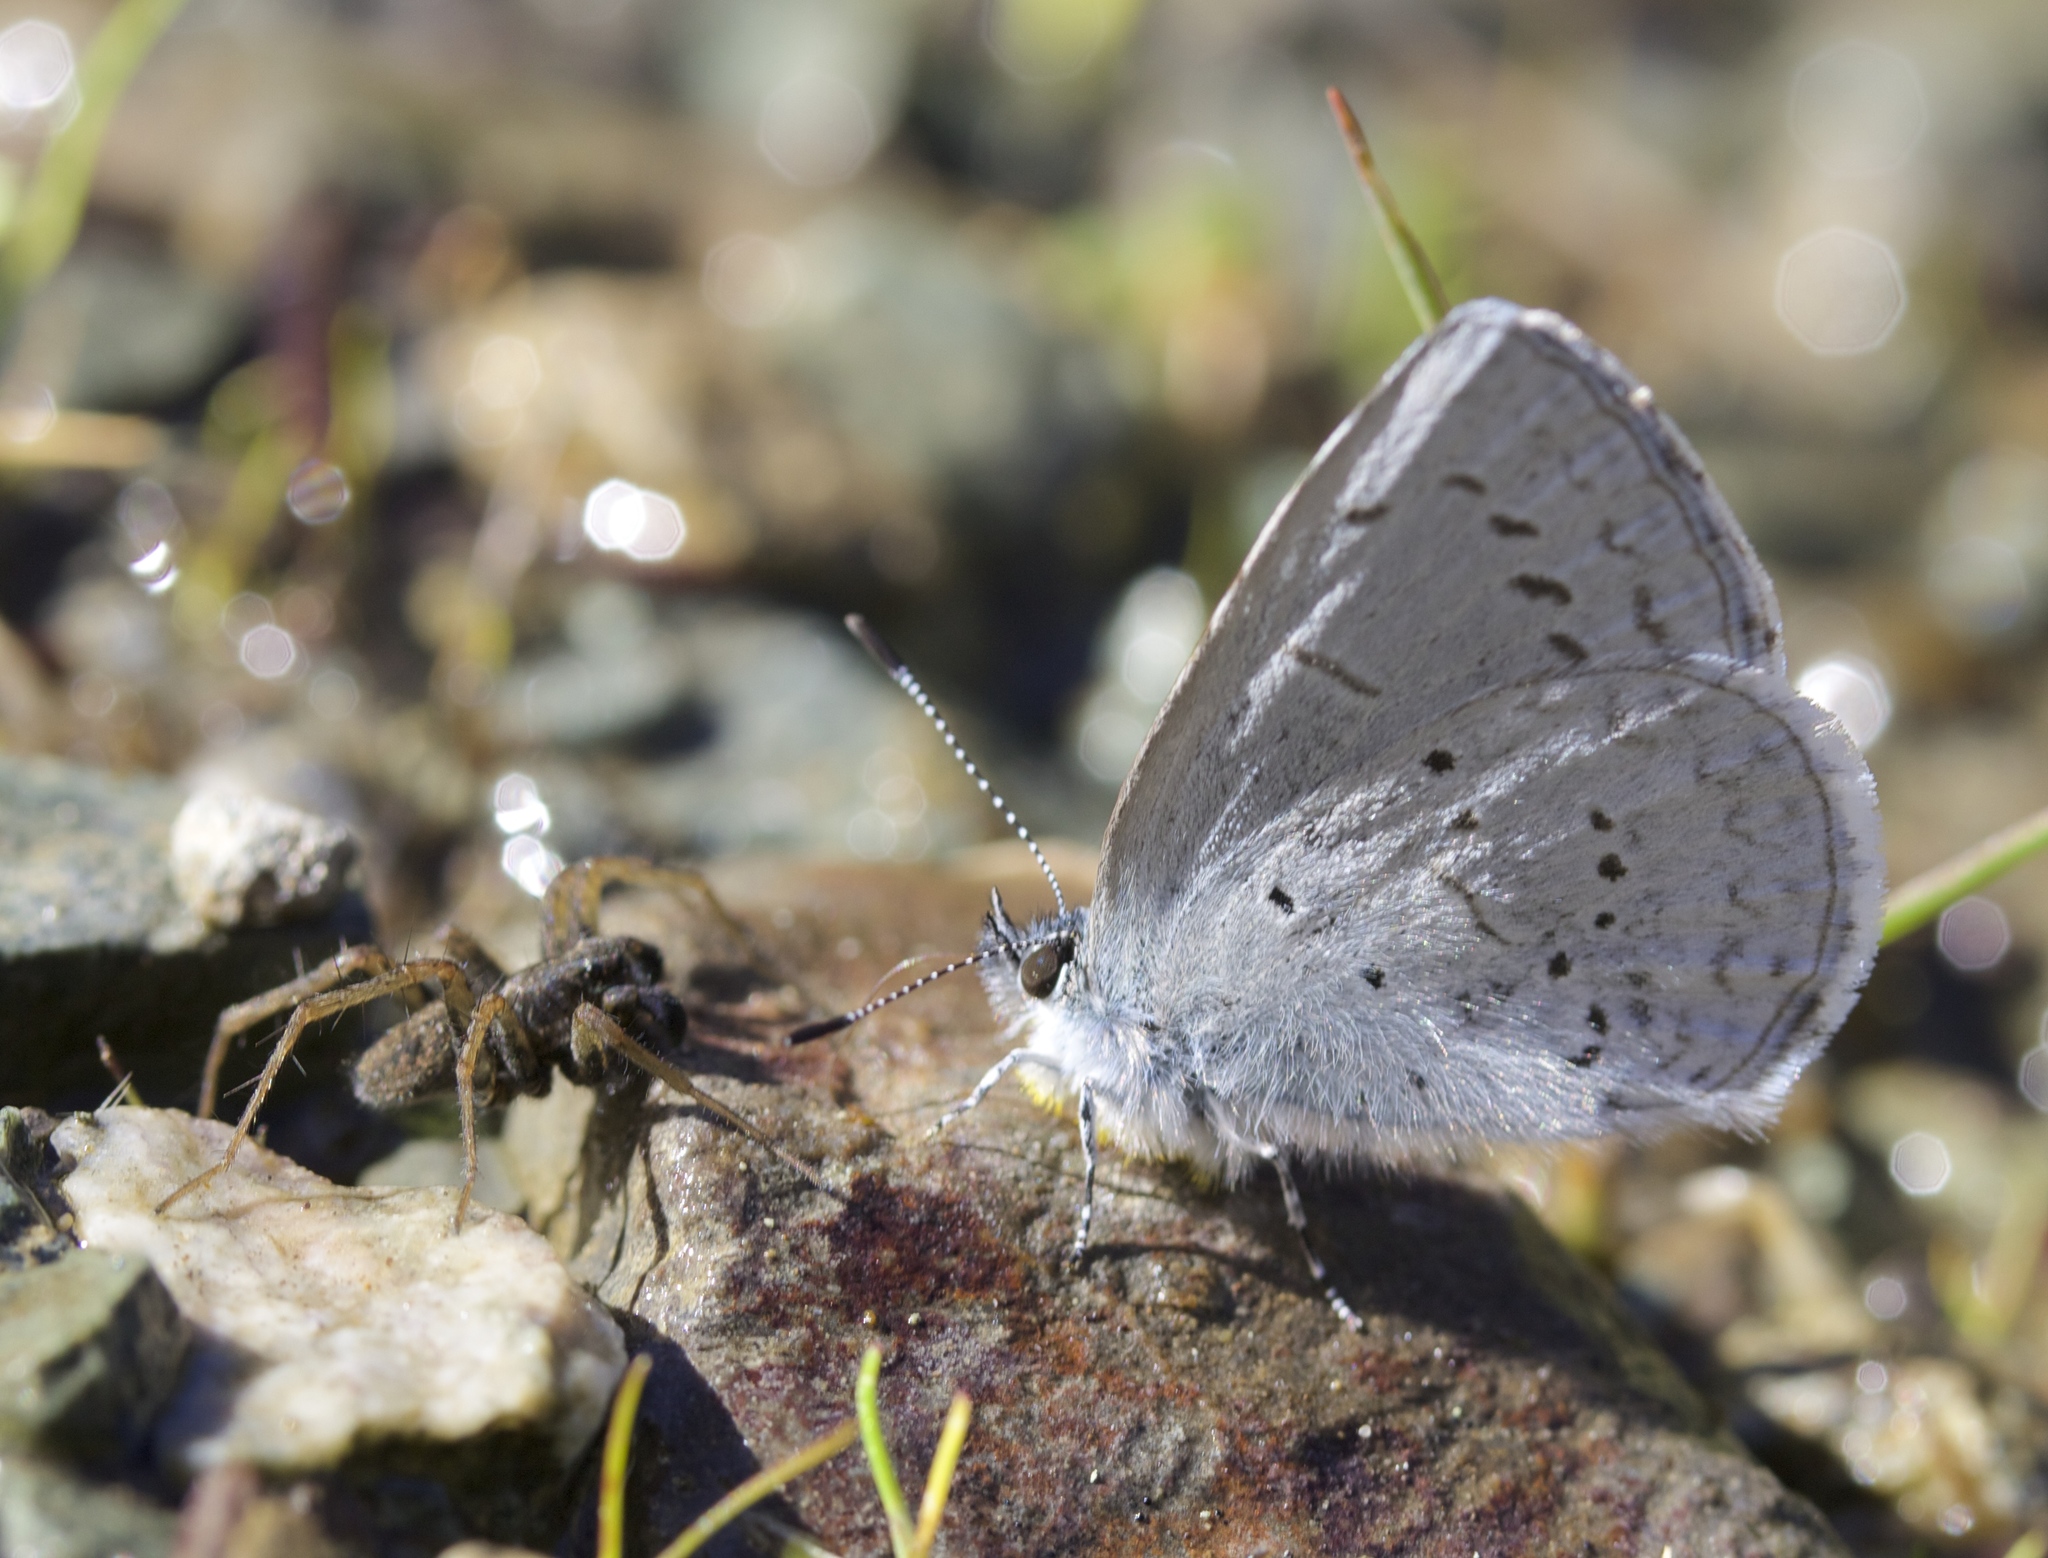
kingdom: Animalia
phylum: Arthropoda
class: Insecta
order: Lepidoptera
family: Lycaenidae
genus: Celastrina
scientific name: Celastrina ladon
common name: Spring azure
